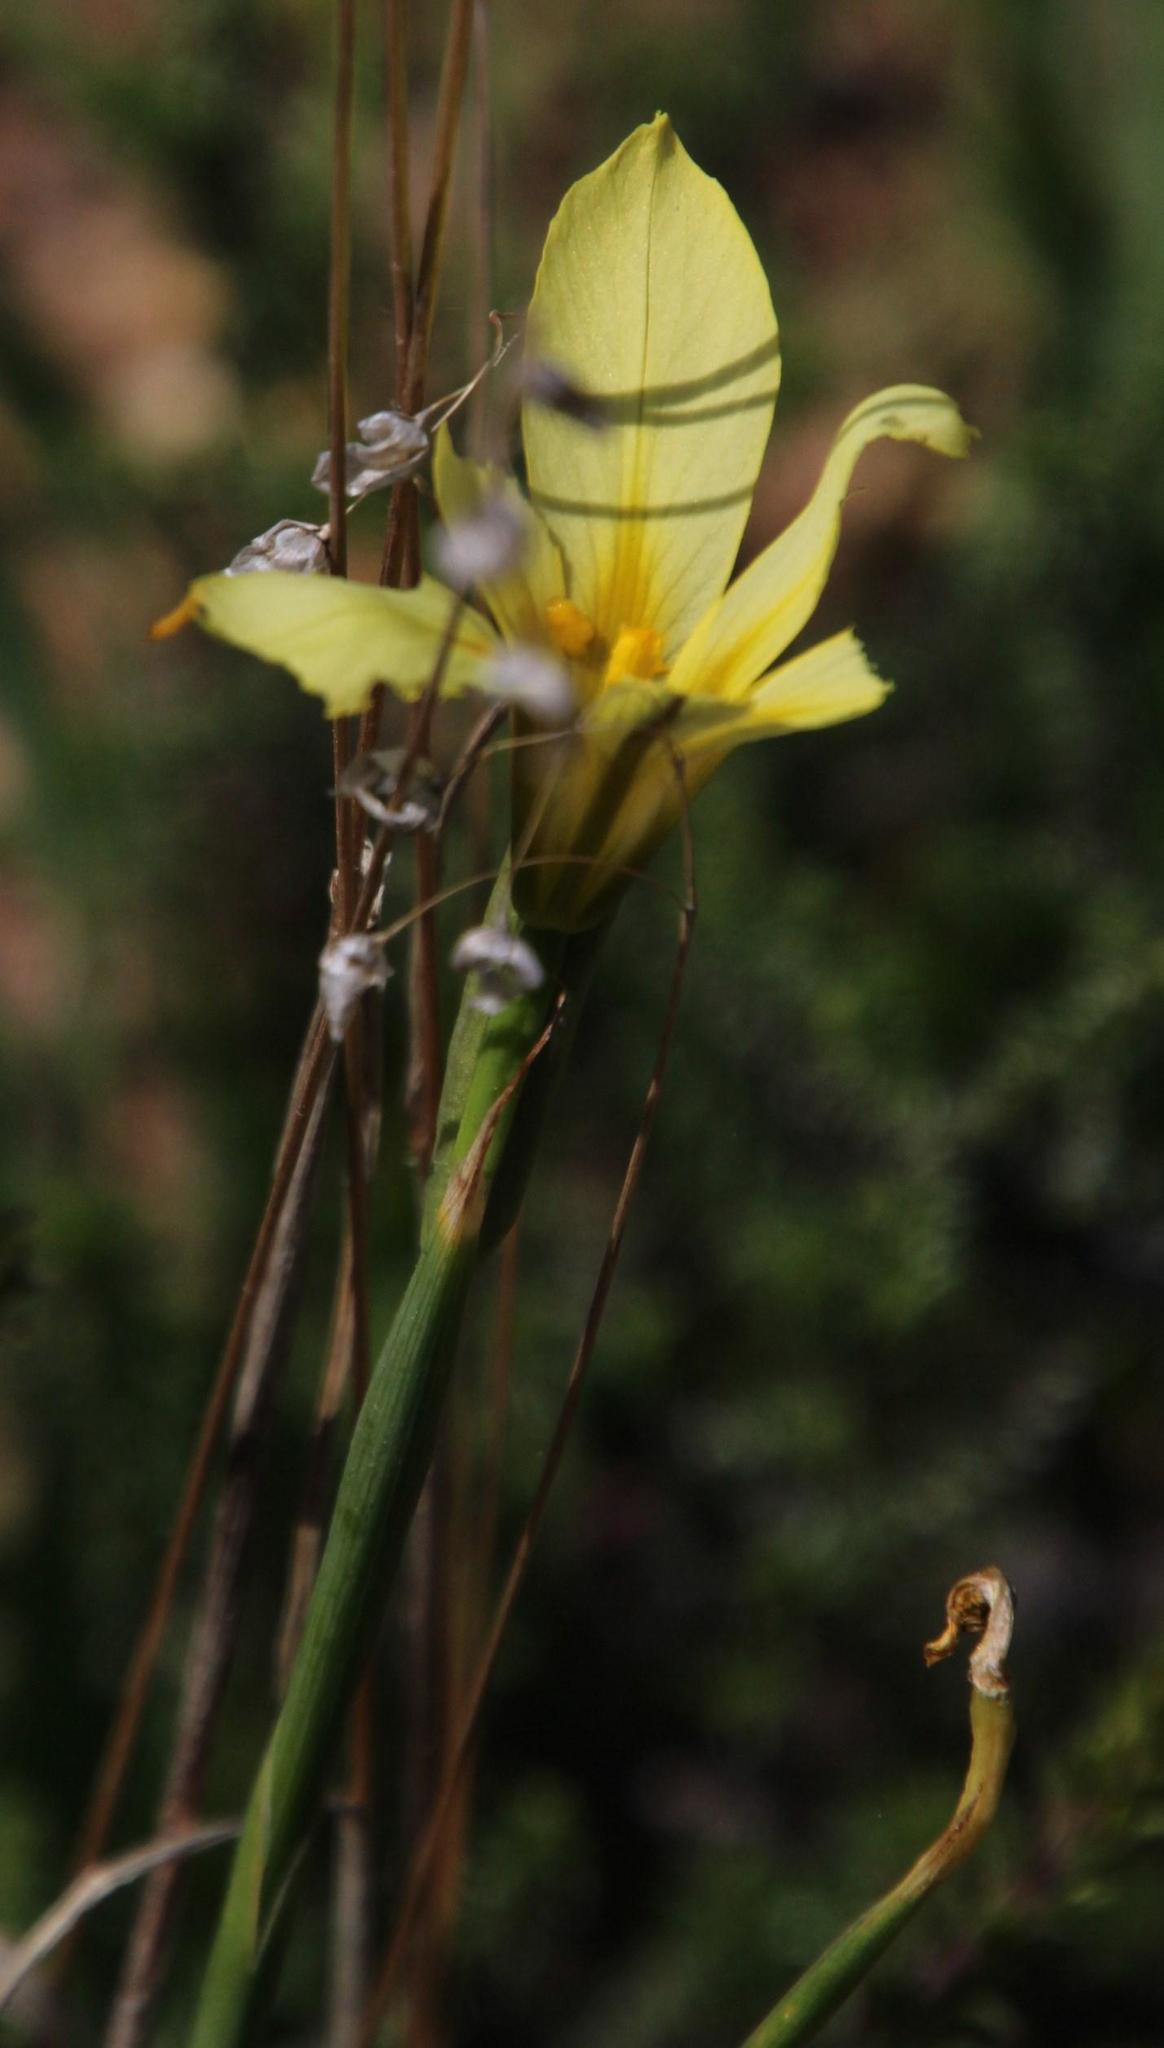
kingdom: Plantae
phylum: Tracheophyta
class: Liliopsida
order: Asparagales
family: Iridaceae
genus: Moraea
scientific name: Moraea flaccida
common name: One-leaf cape-tulip
